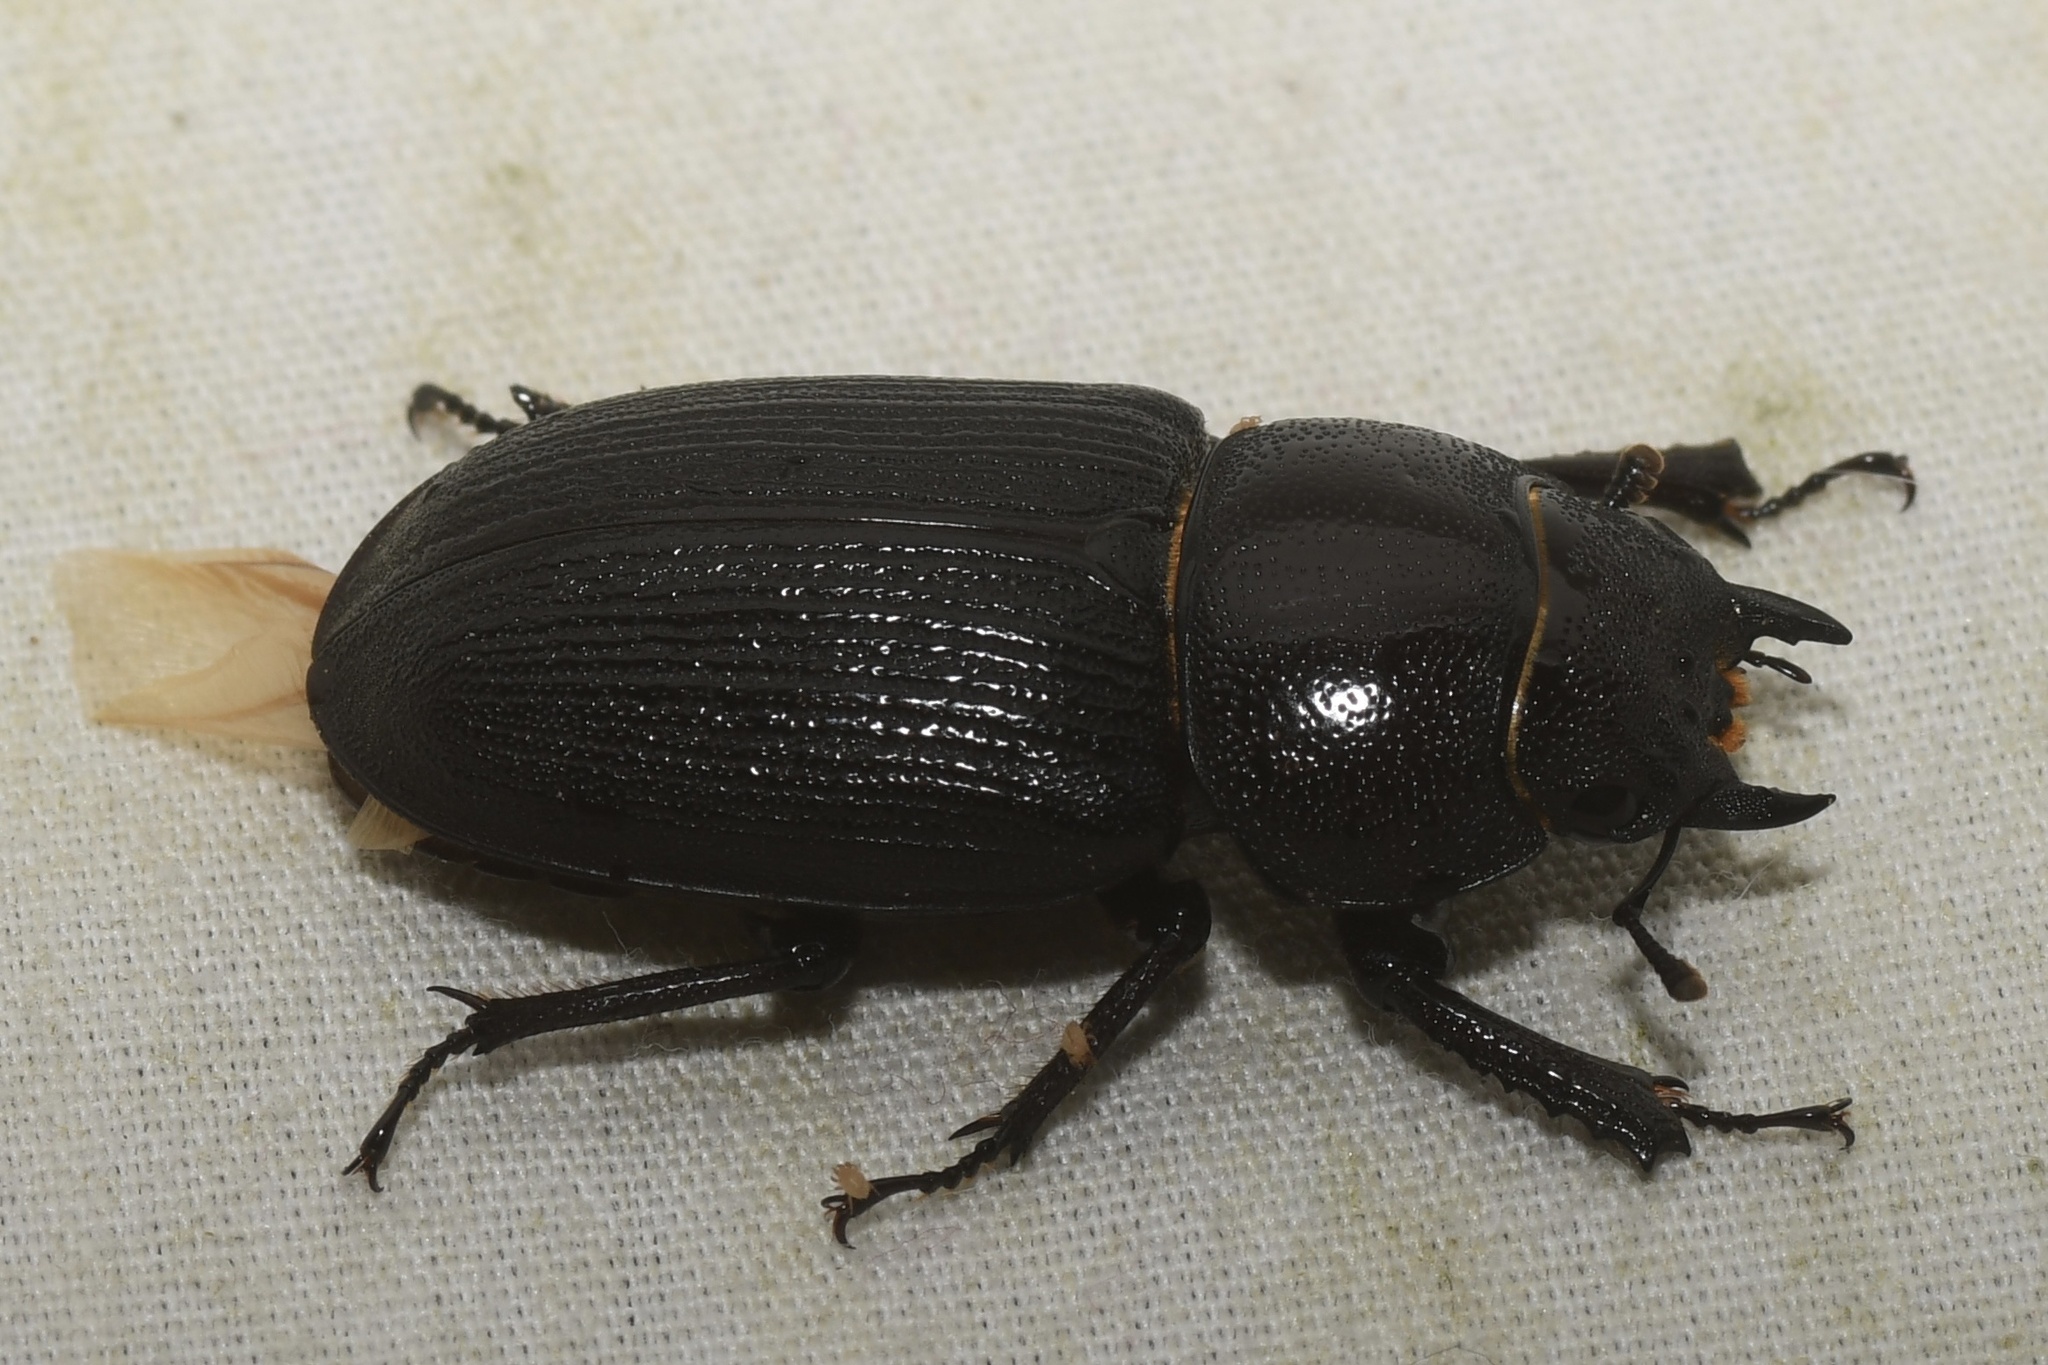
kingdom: Animalia
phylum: Arthropoda
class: Insecta
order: Coleoptera
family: Lucanidae
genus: Dorcus
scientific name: Dorcus parallelus
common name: Antelope beetle
